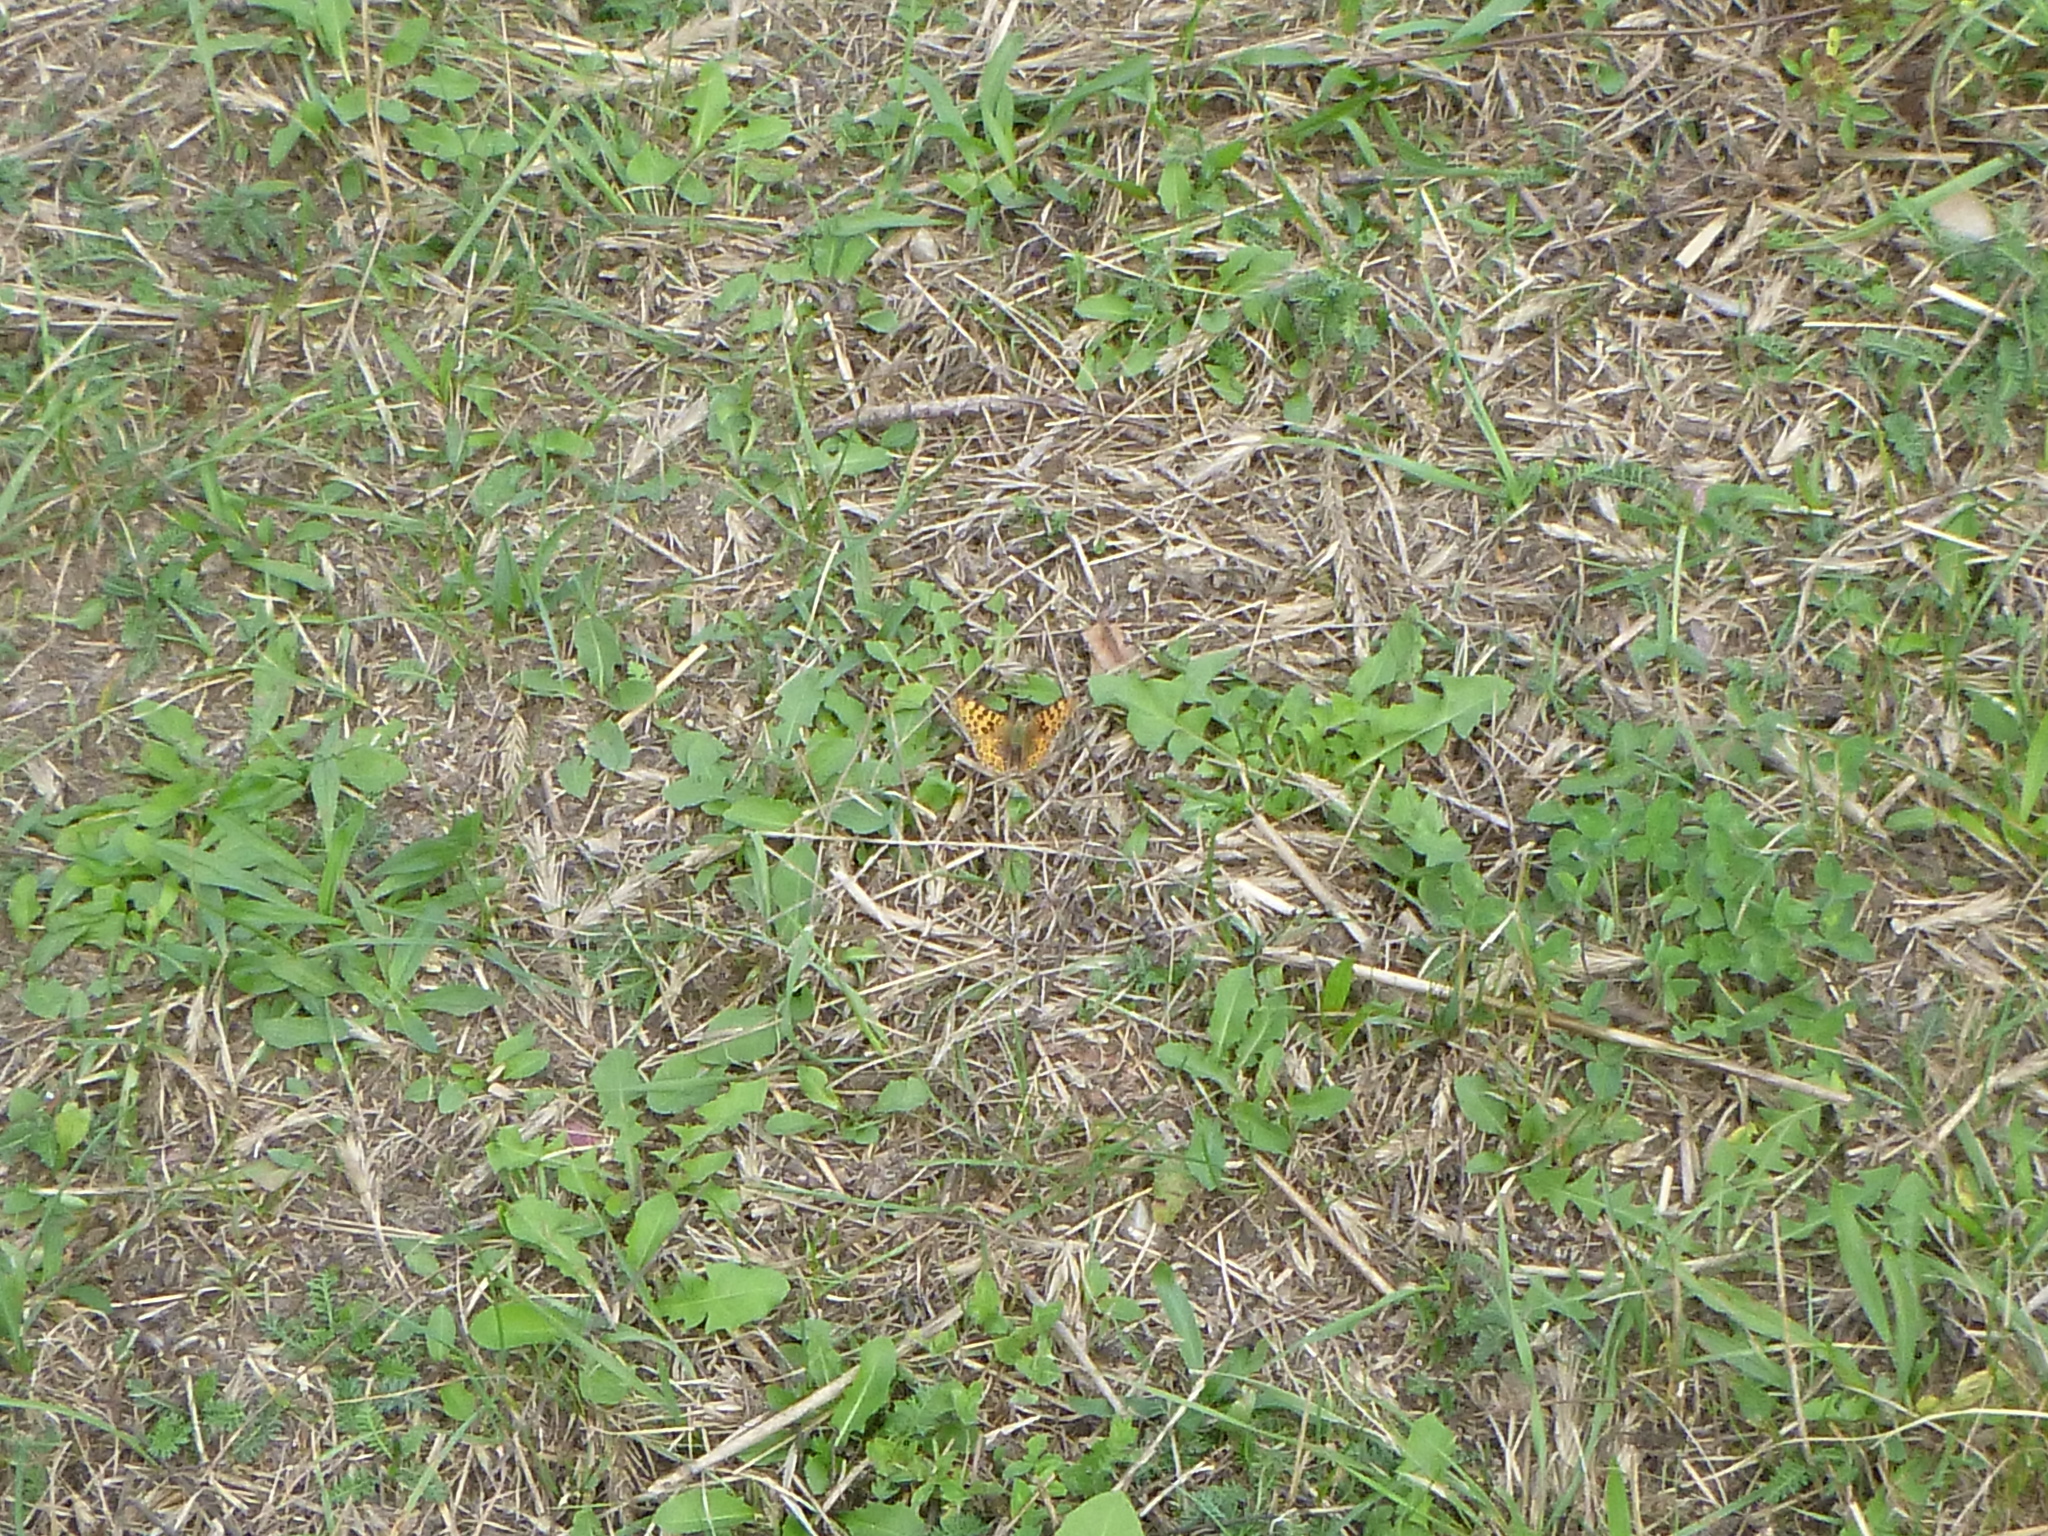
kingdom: Animalia
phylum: Arthropoda
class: Insecta
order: Lepidoptera
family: Nymphalidae
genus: Issoria
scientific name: Issoria lathonia
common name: Queen of spain fritillary
